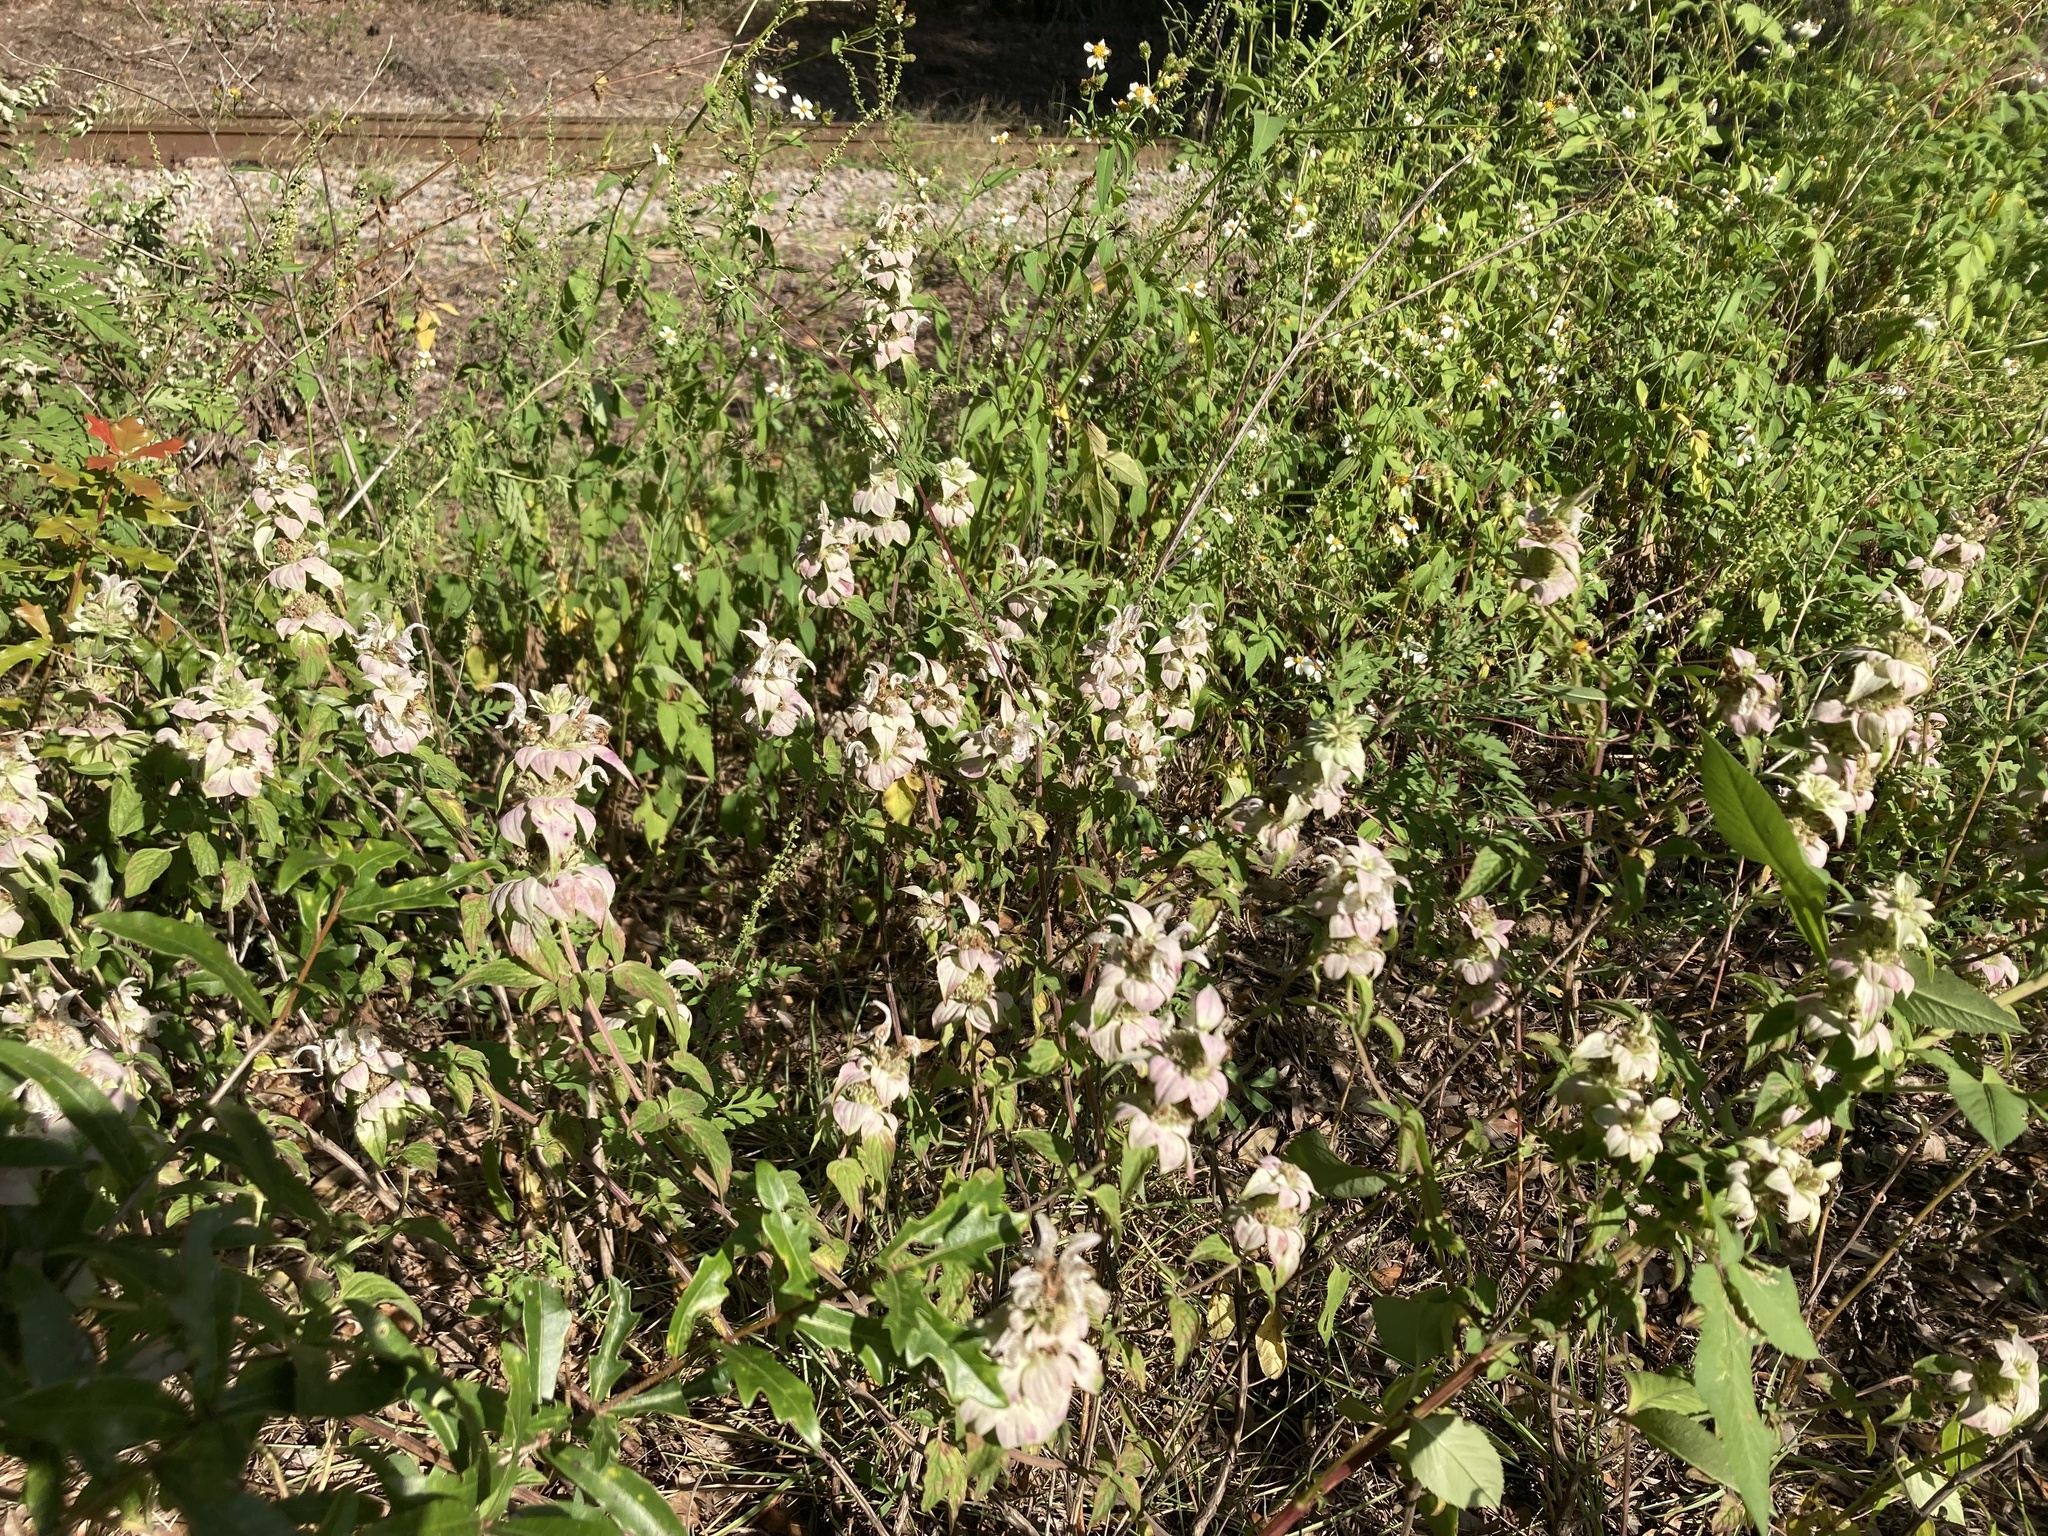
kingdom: Plantae
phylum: Tracheophyta
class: Magnoliopsida
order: Lamiales
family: Lamiaceae
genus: Monarda
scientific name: Monarda punctata
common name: Dotted monarda
